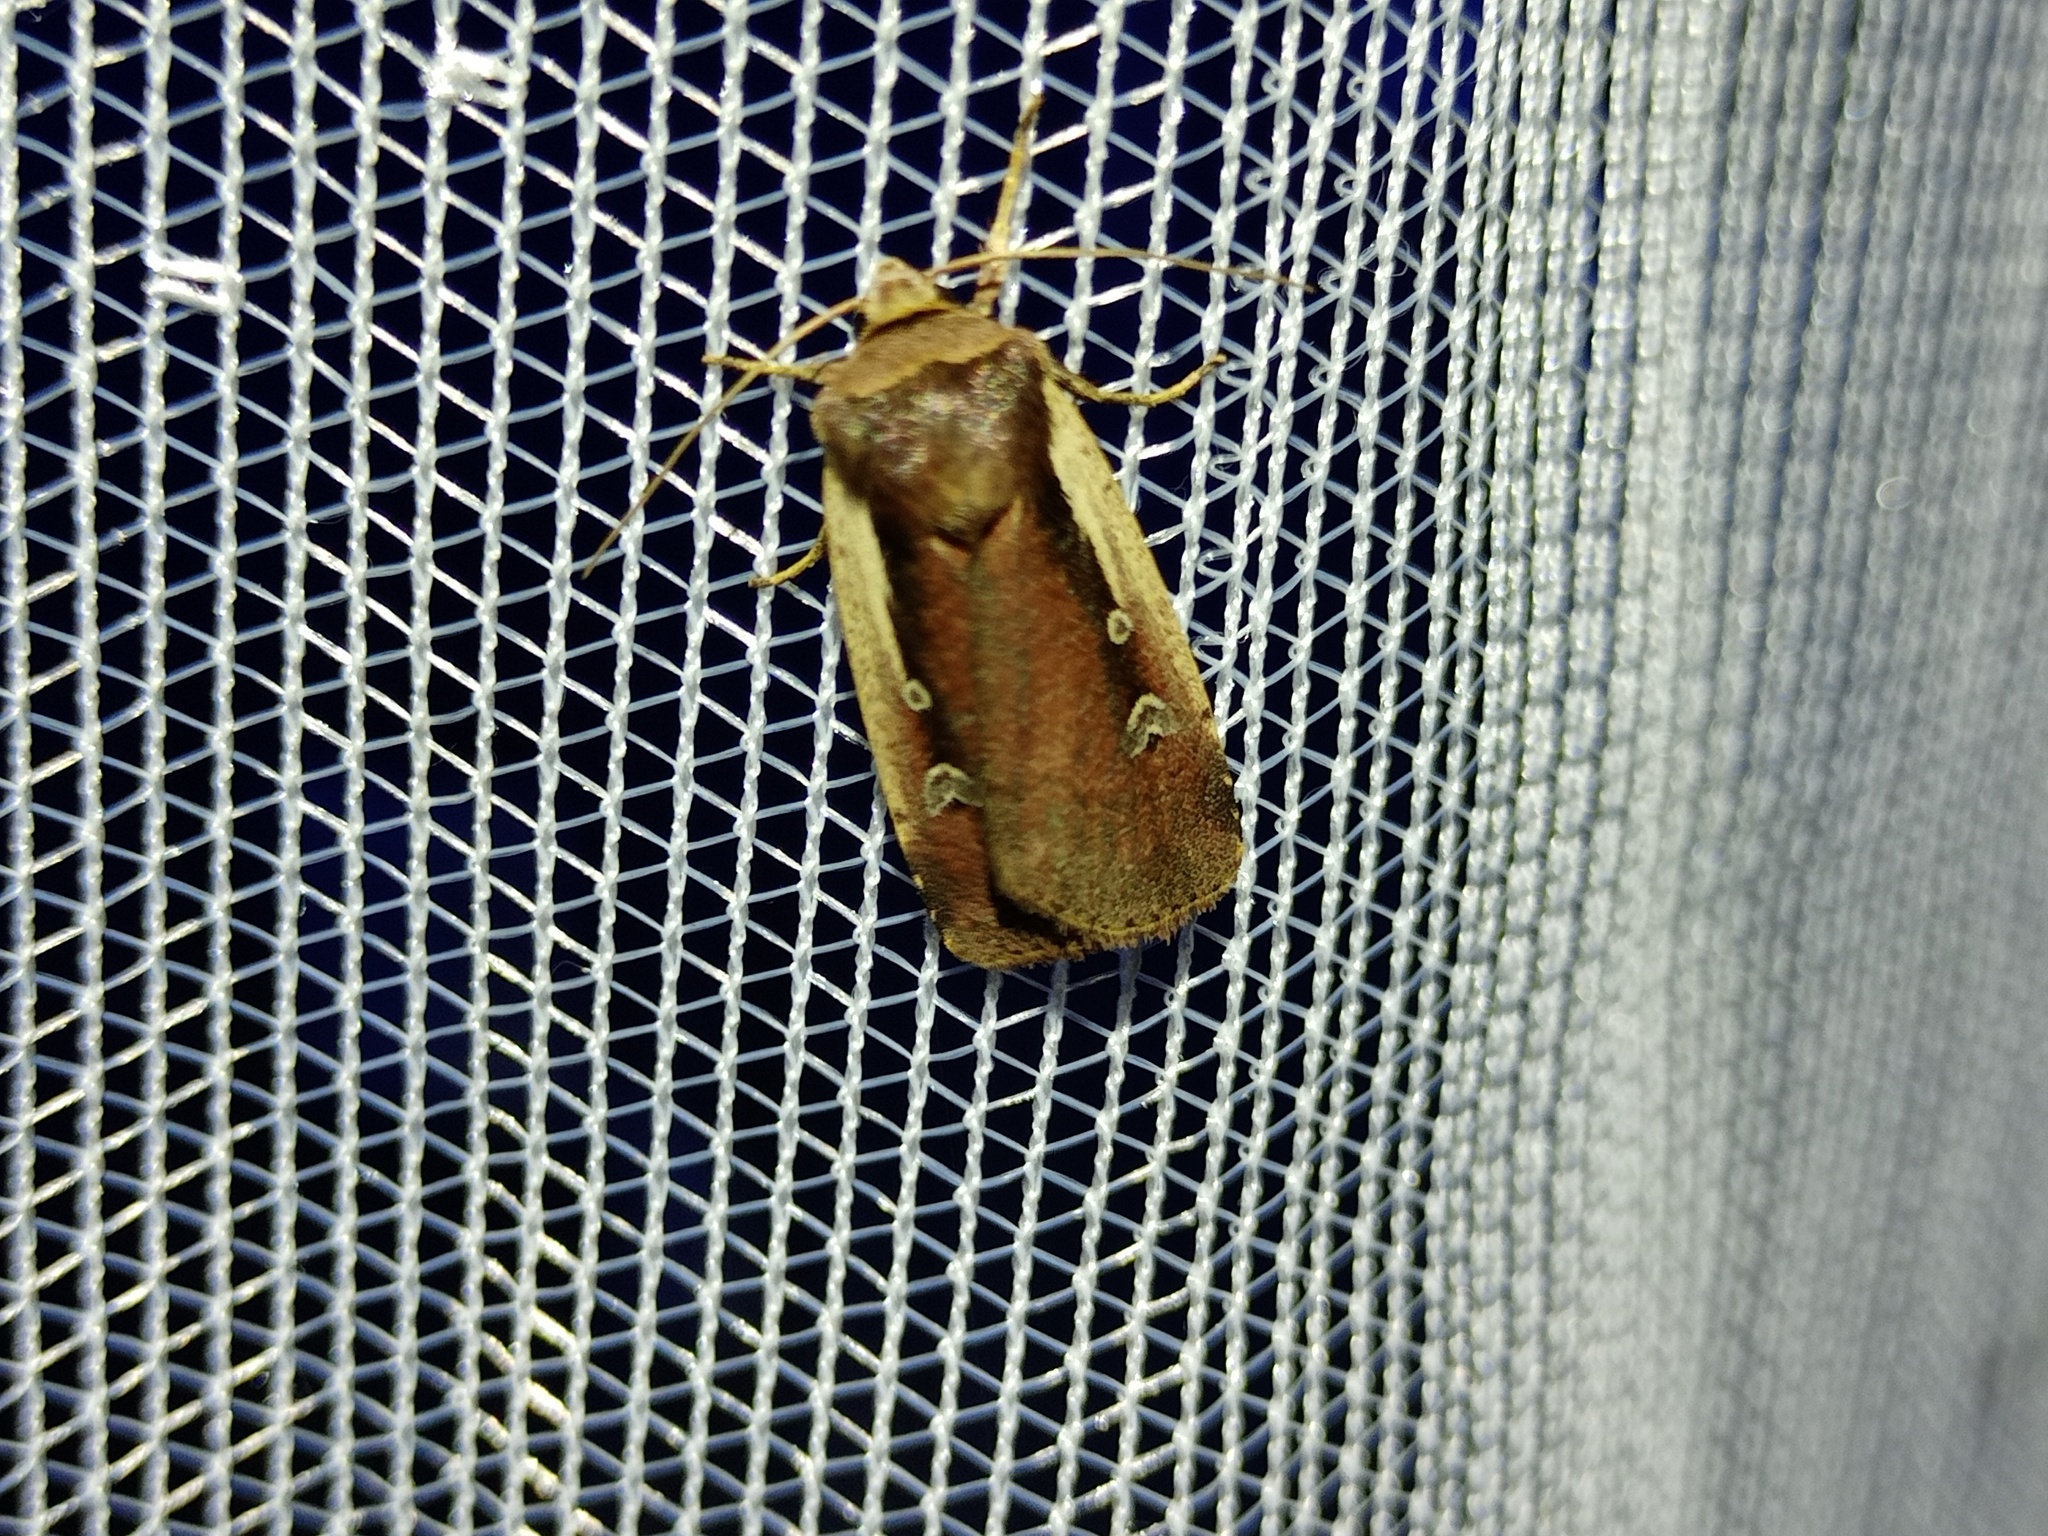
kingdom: Animalia
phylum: Arthropoda
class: Insecta
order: Lepidoptera
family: Noctuidae
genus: Ochropleura
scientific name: Ochropleura plecta
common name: Flame shoulder
